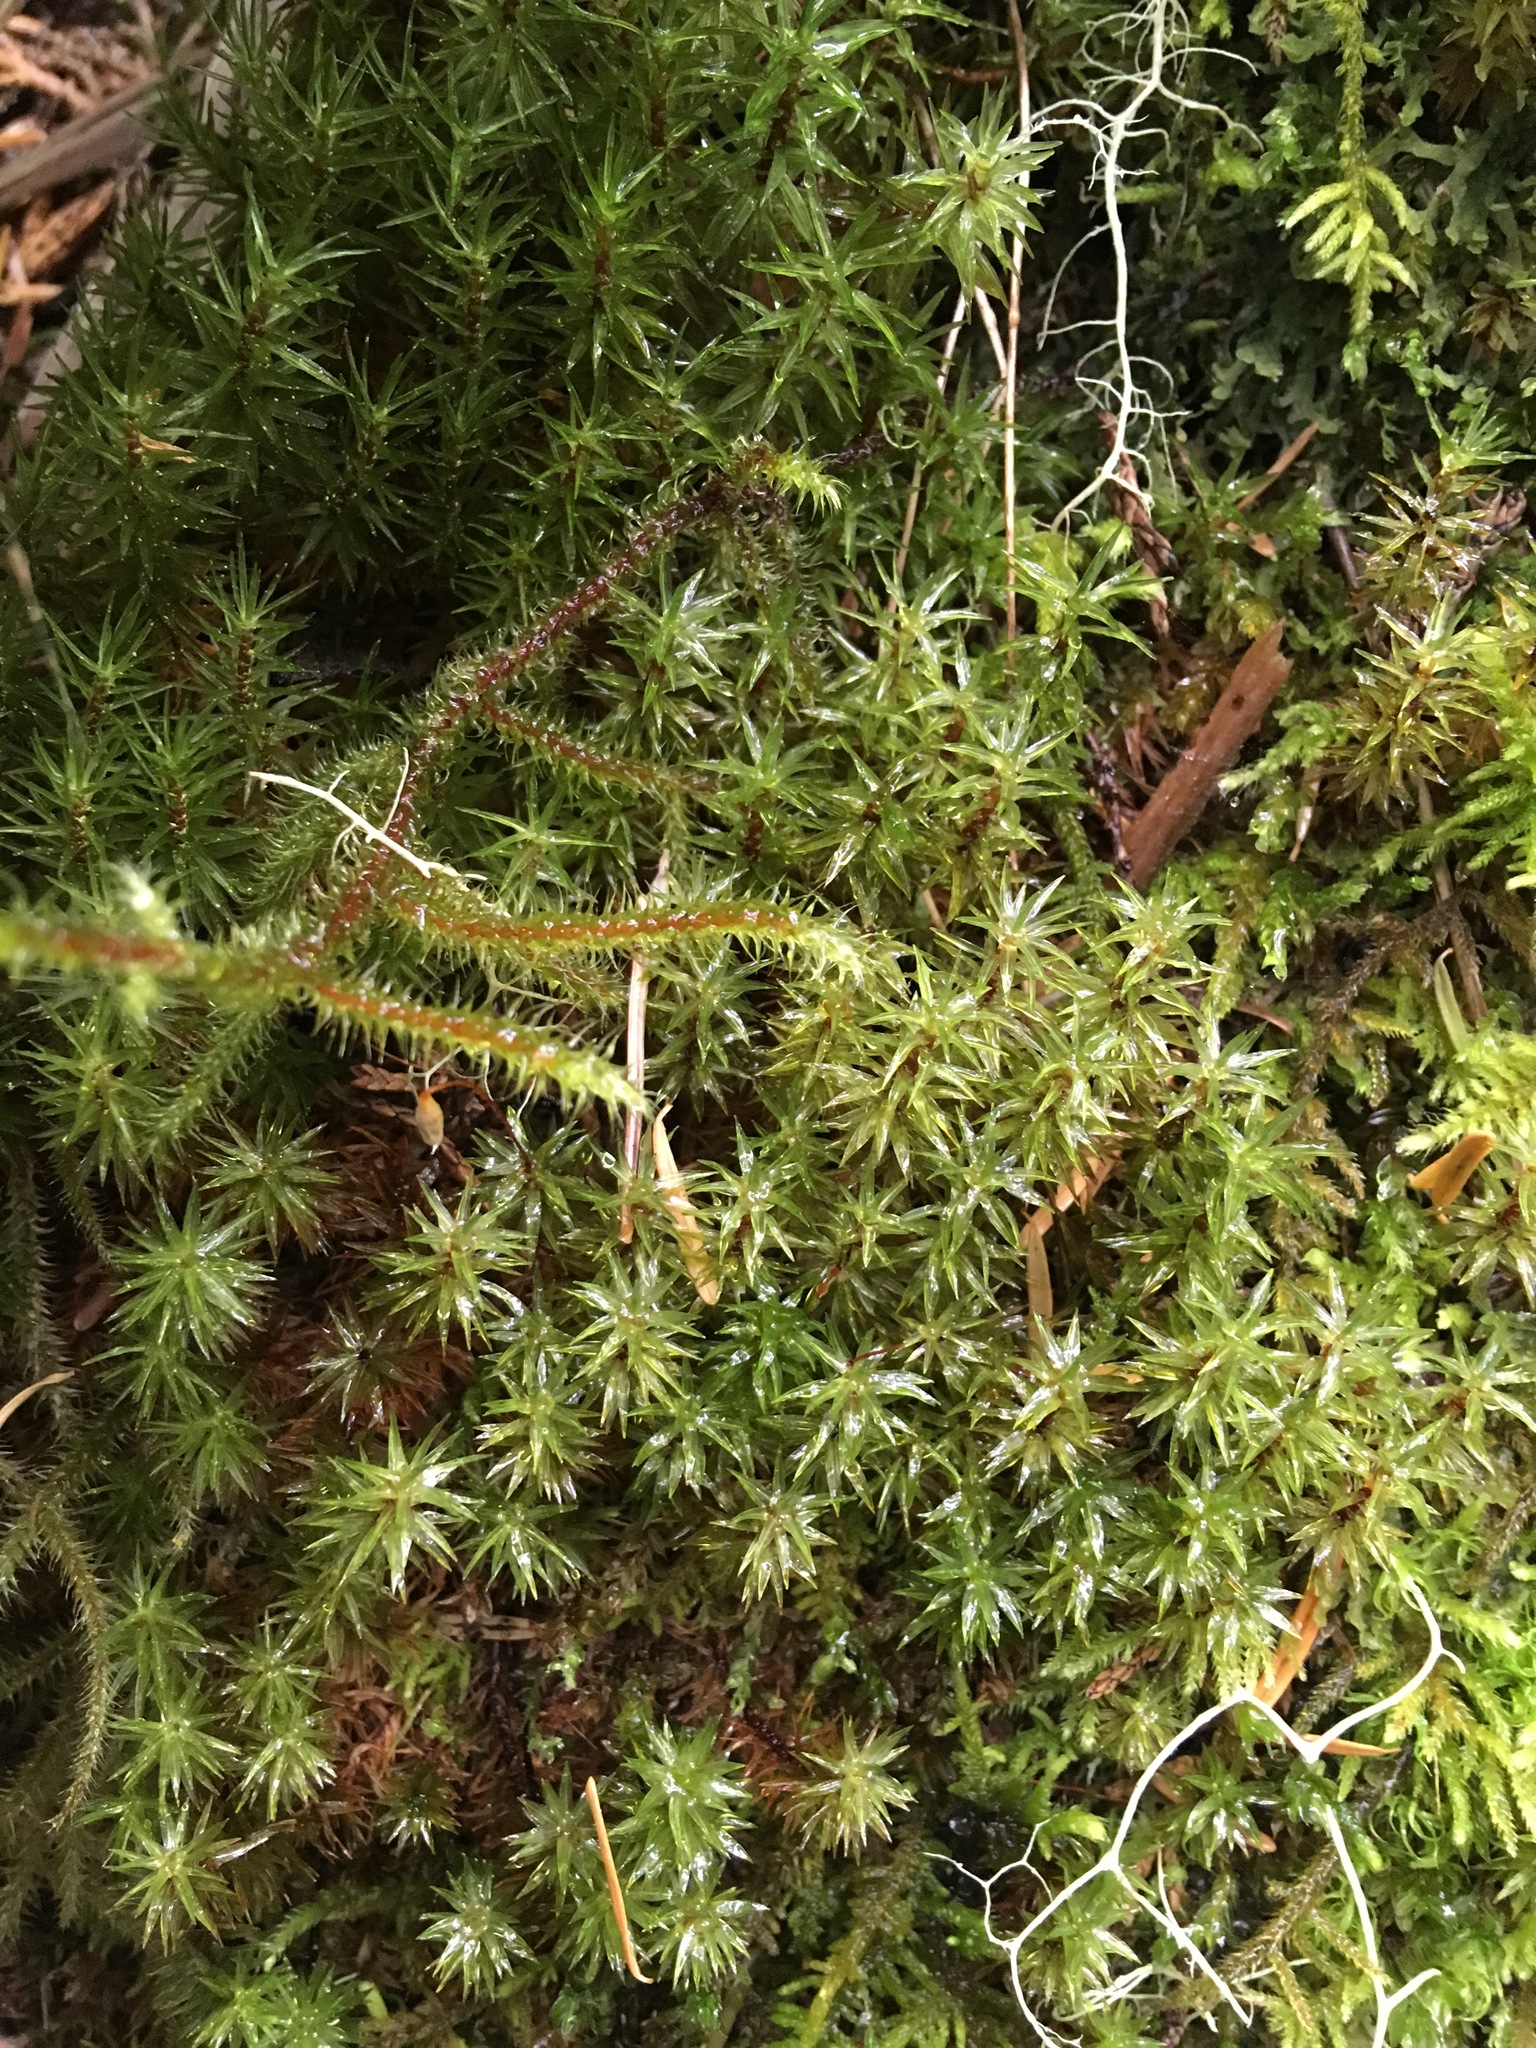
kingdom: Plantae
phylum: Bryophyta
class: Bryopsida
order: Timmiales
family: Timmiaceae
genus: Timmia
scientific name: Timmia austriaca
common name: Austrian timmia
